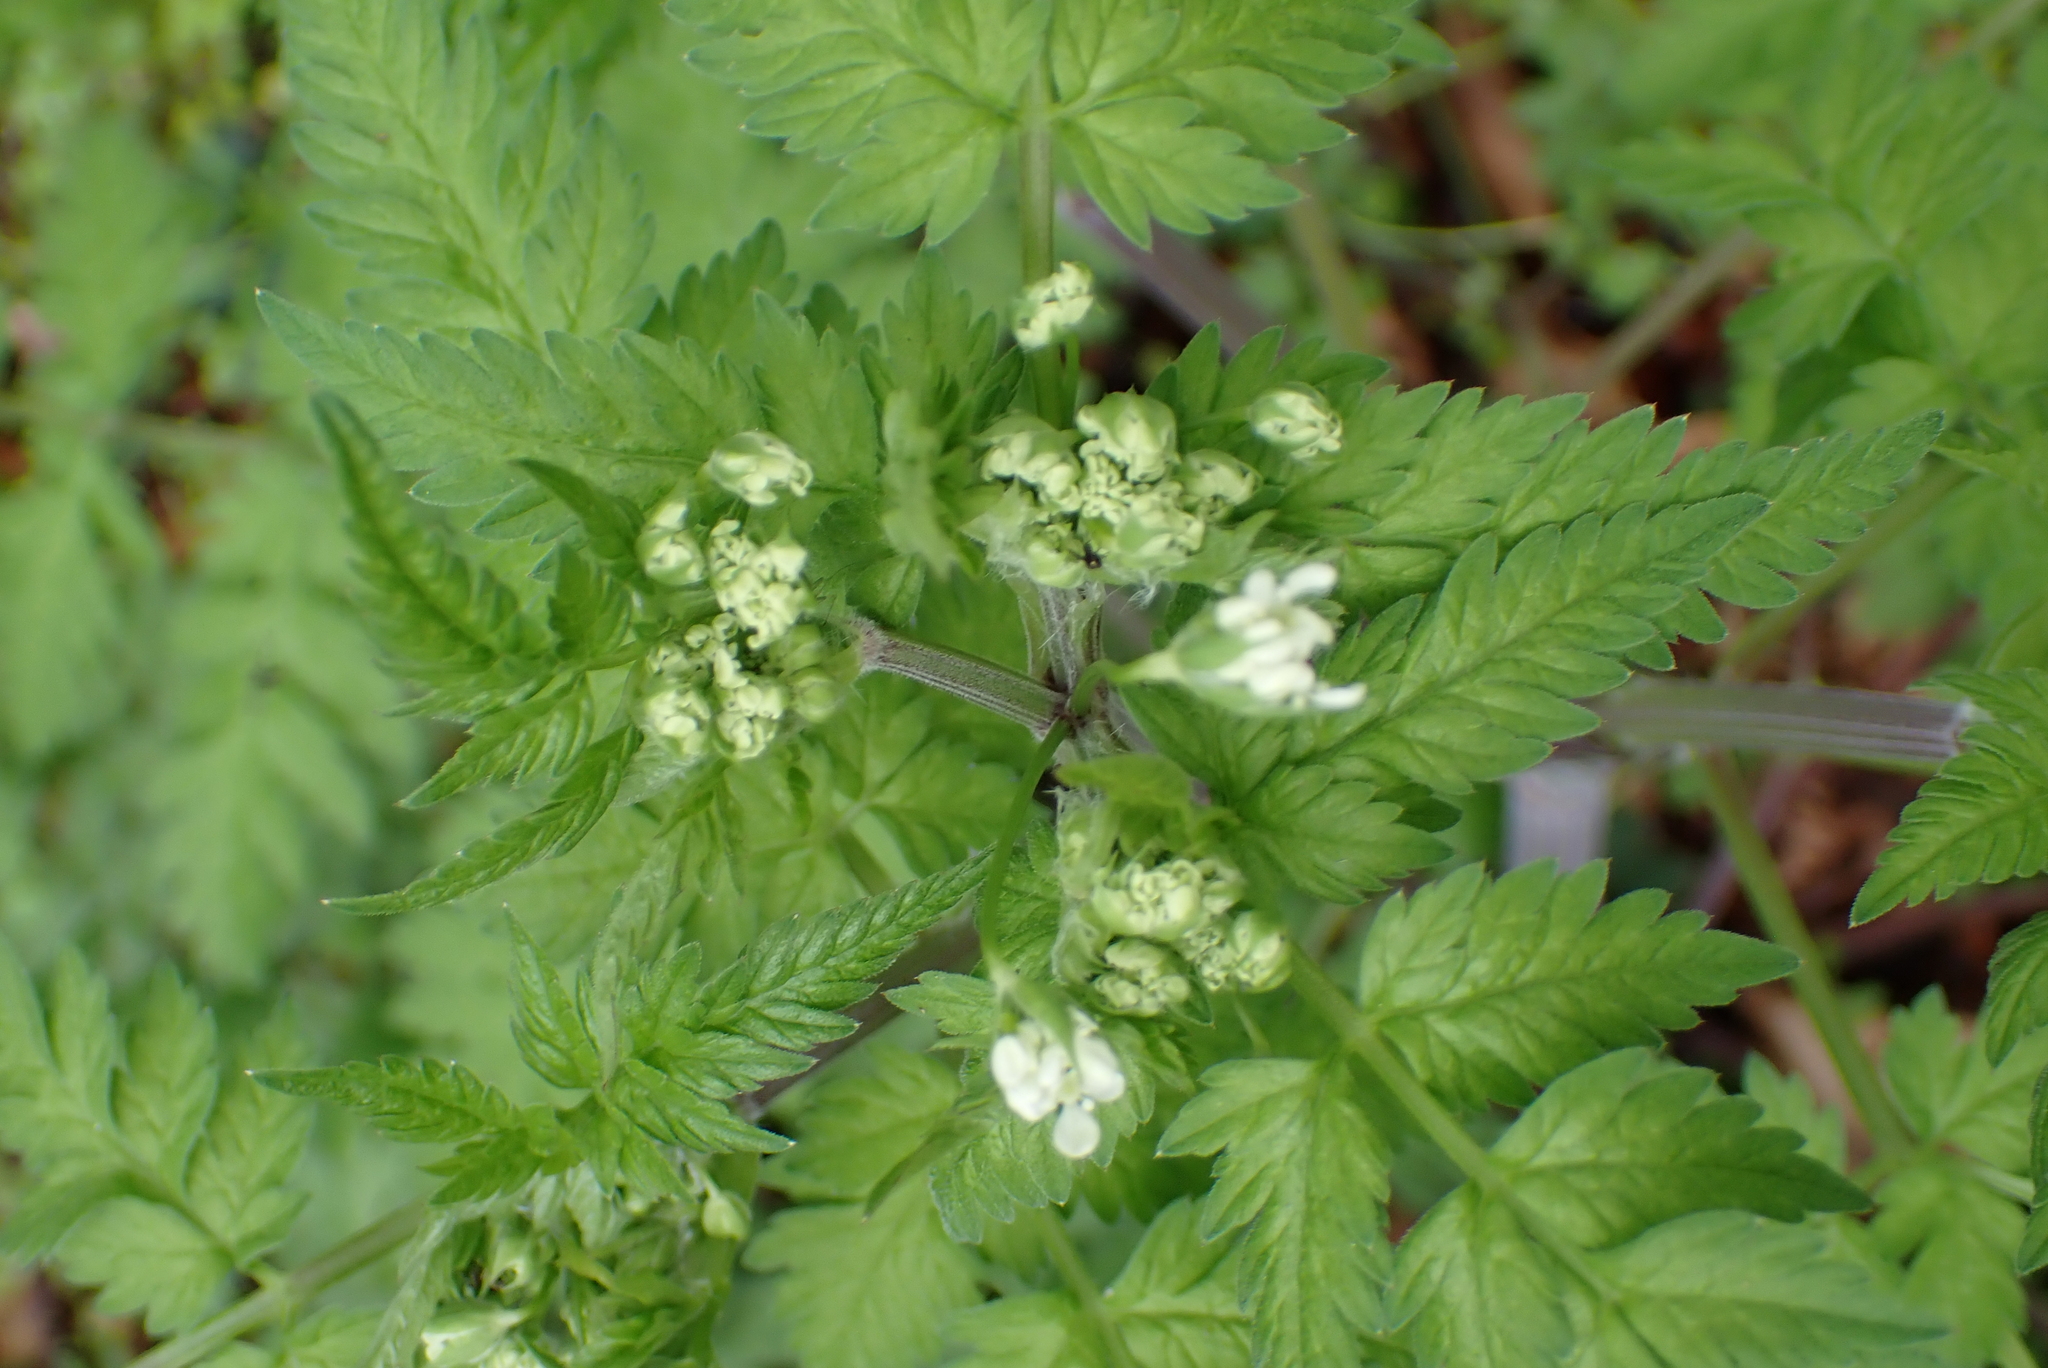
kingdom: Plantae
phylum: Tracheophyta
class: Magnoliopsida
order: Apiales
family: Apiaceae
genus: Anthriscus
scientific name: Anthriscus sylvestris
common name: Cow parsley
